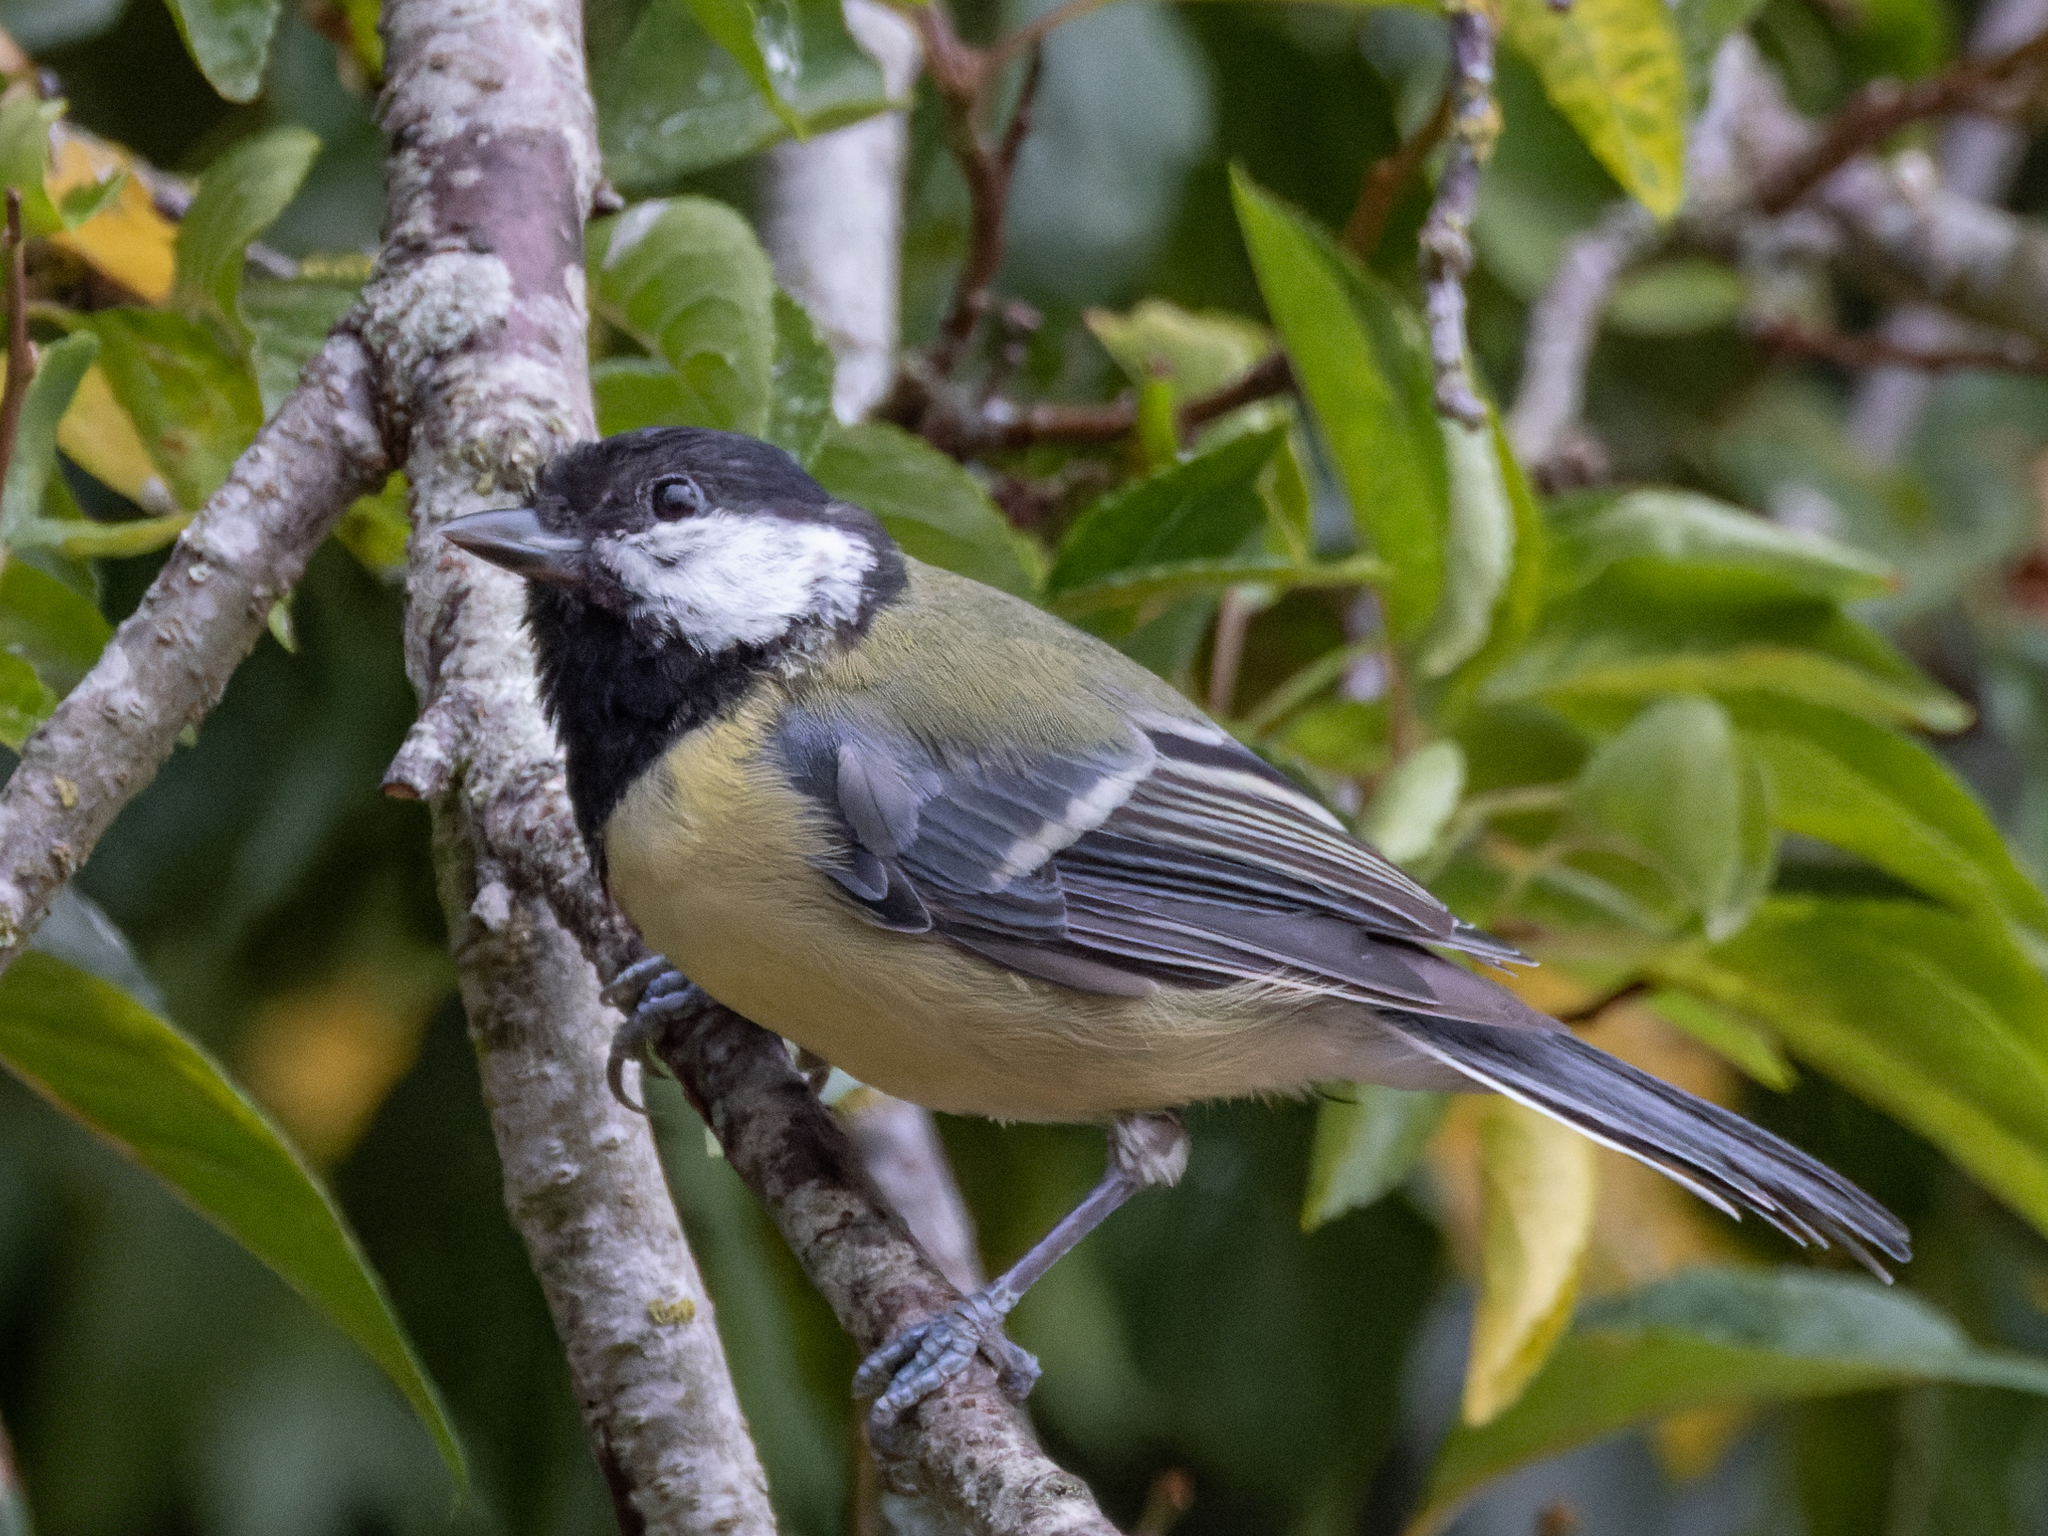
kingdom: Animalia
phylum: Chordata
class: Aves
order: Passeriformes
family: Paridae
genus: Parus
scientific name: Parus major
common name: Great tit
